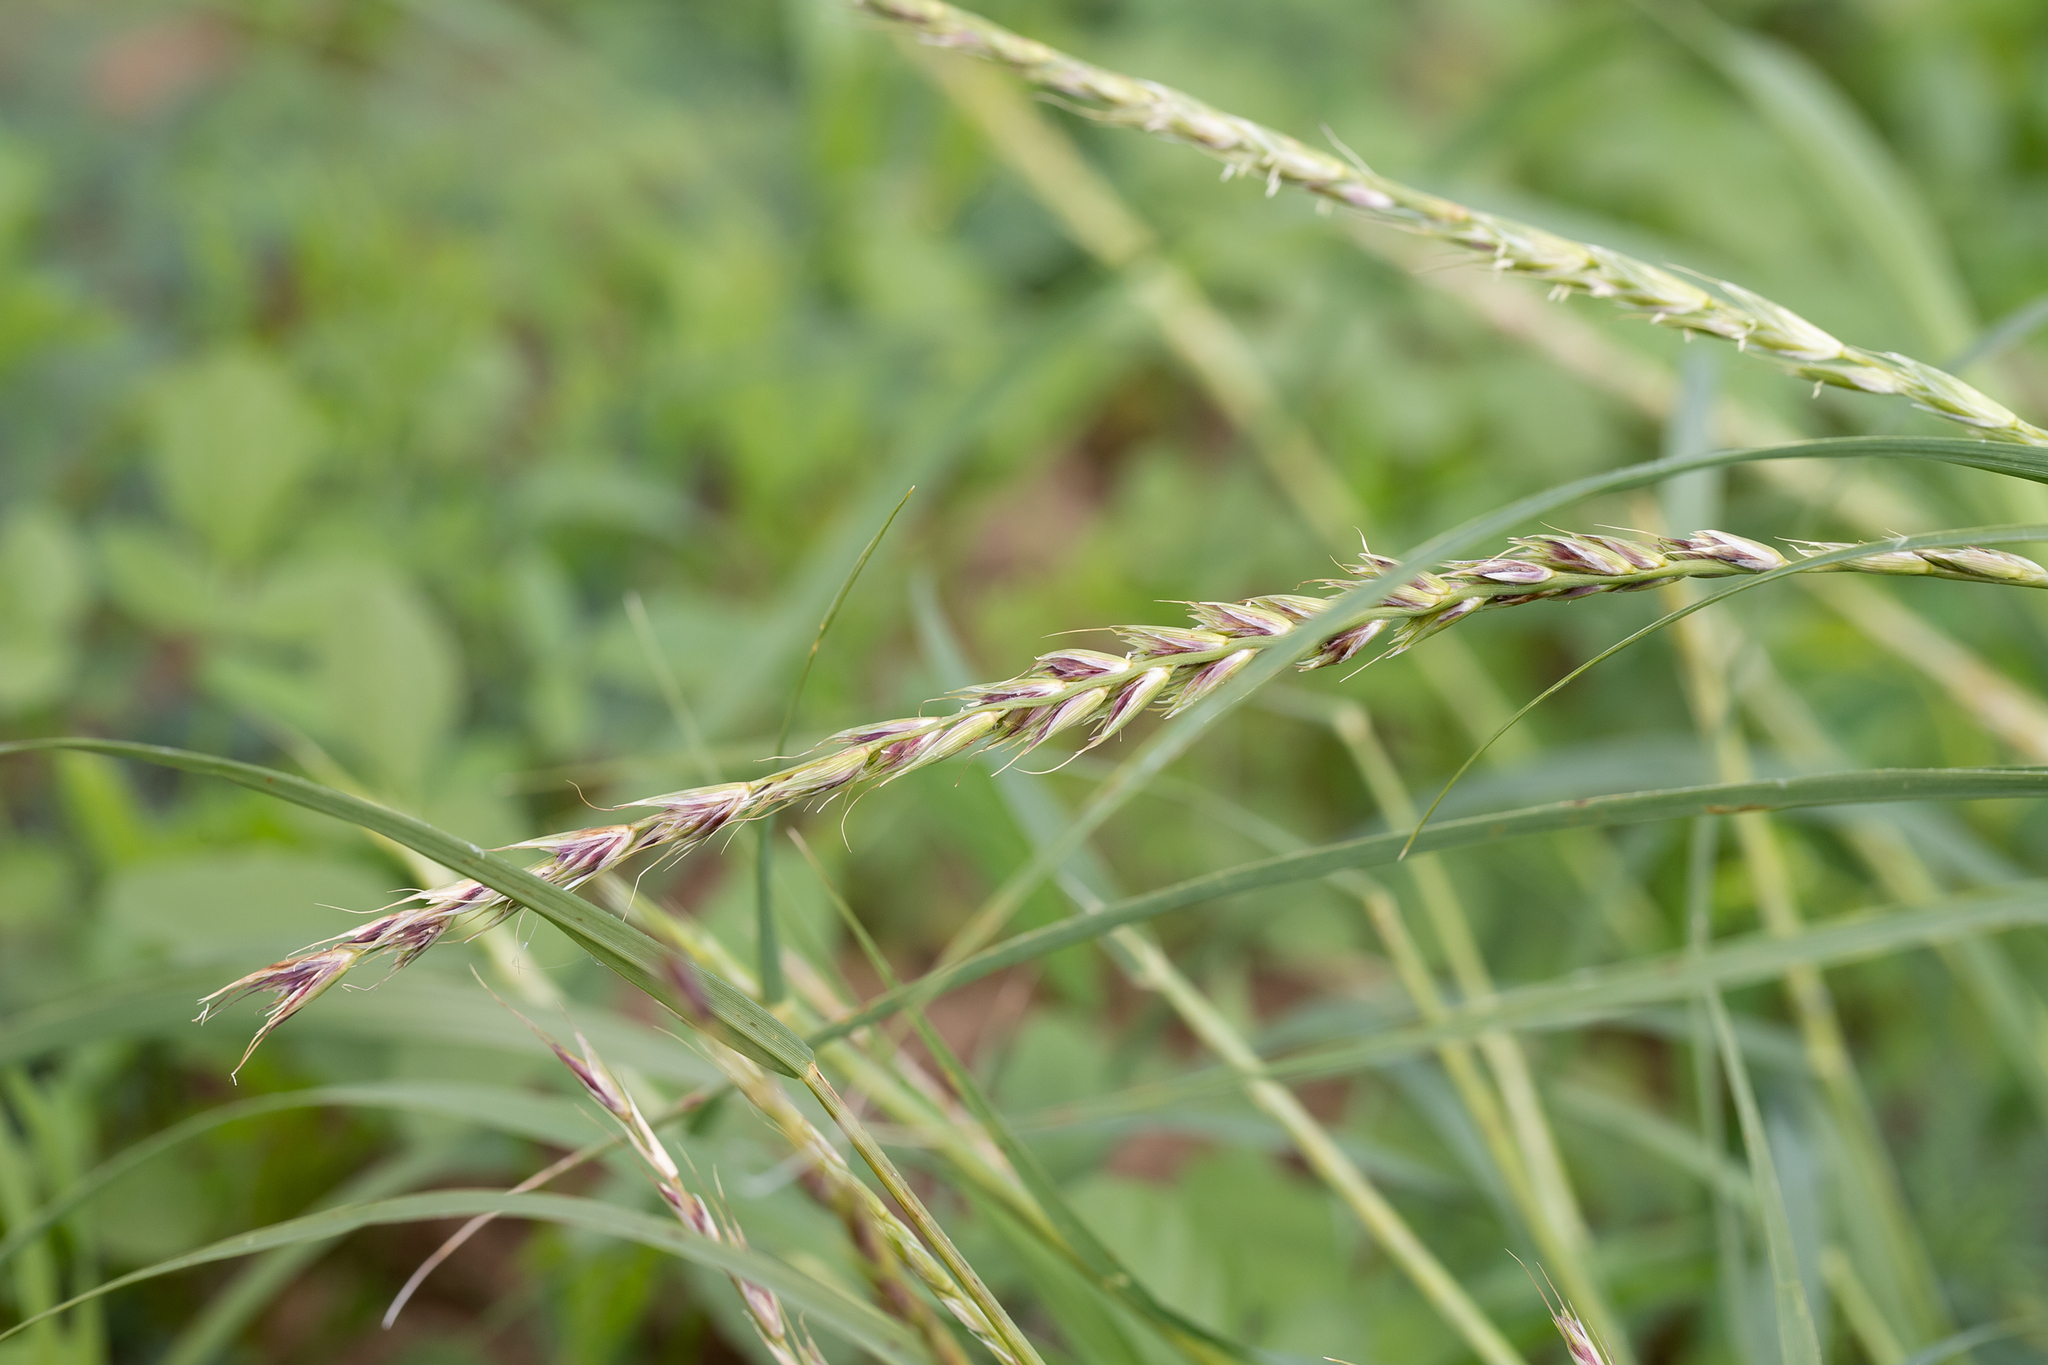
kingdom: Plantae
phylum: Tracheophyta
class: Liliopsida
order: Poales
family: Poaceae
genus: Astrebla
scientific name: Astrebla lappacea
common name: Curly mitchell grass
